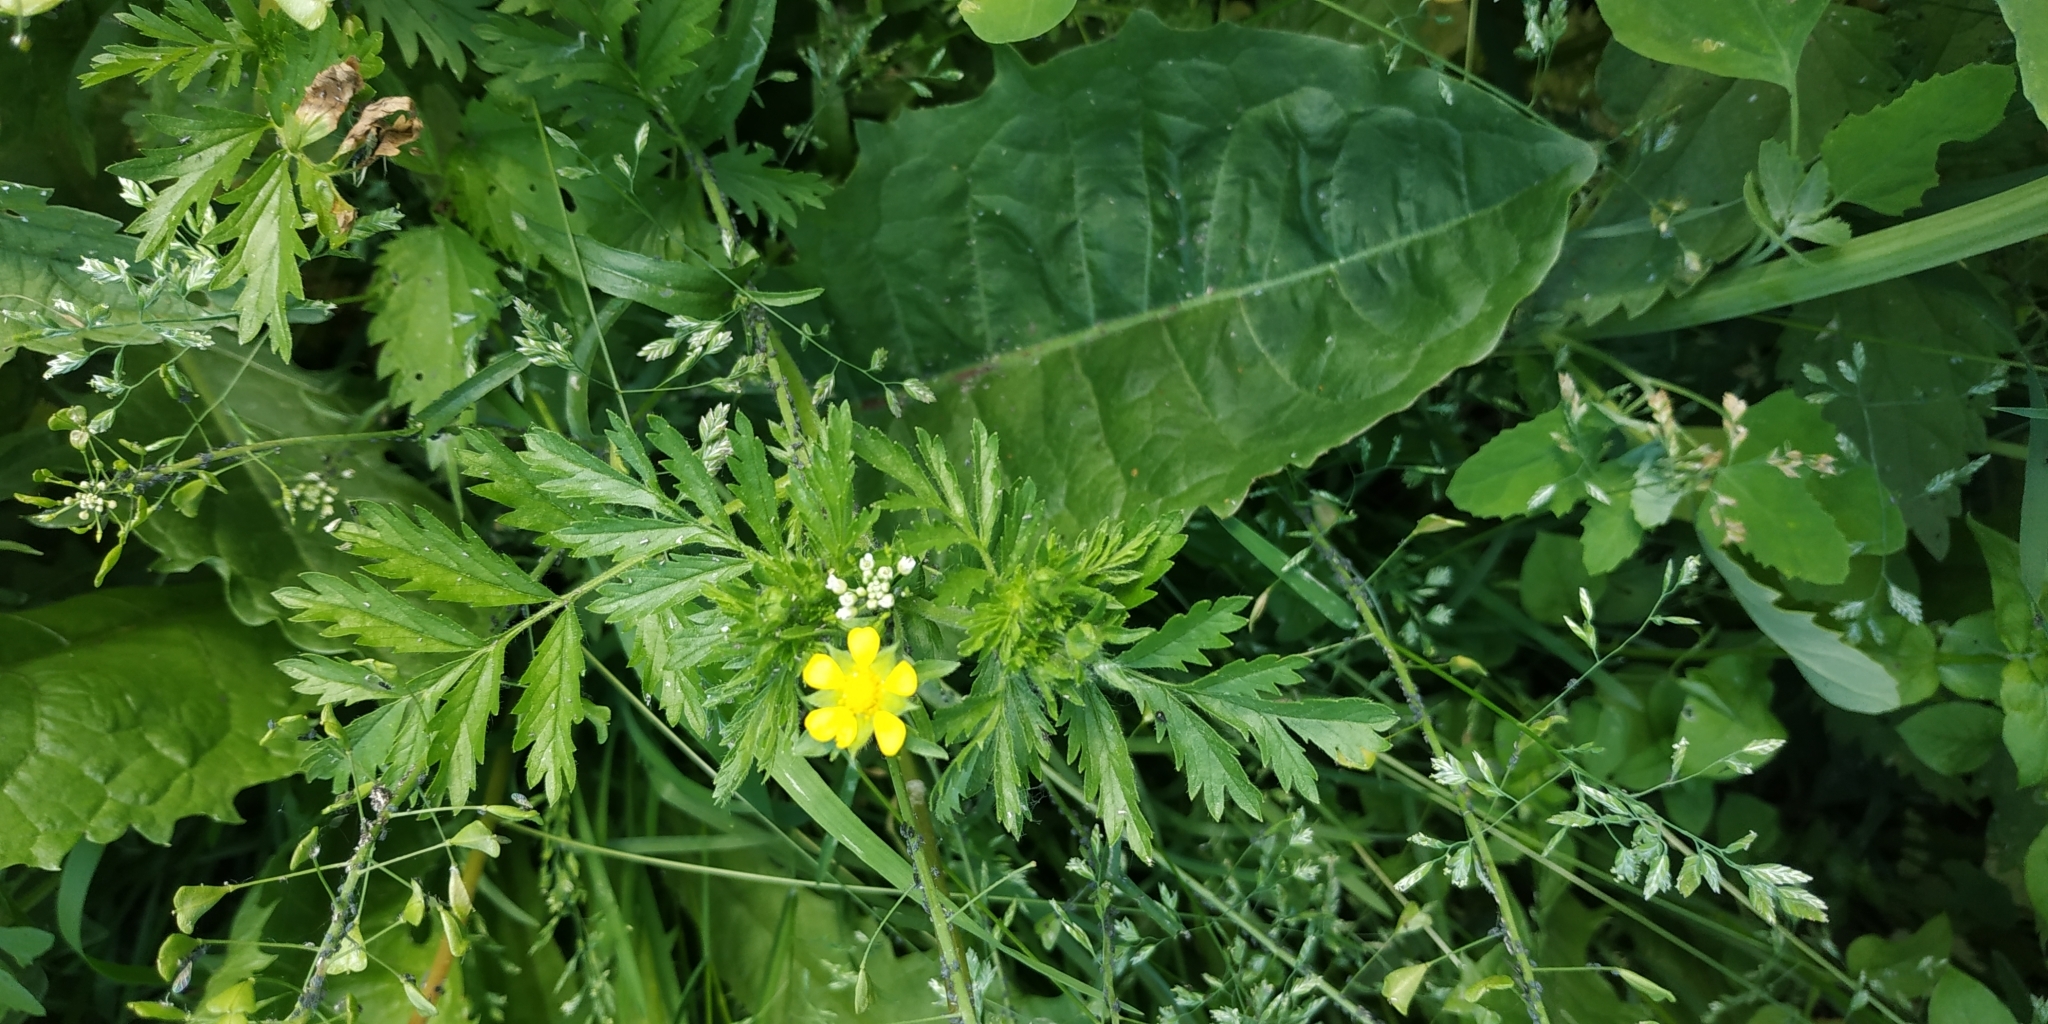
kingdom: Plantae
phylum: Tracheophyta
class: Magnoliopsida
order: Rosales
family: Rosaceae
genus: Potentilla
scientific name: Potentilla supina
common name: Prostrate cinquefoil
